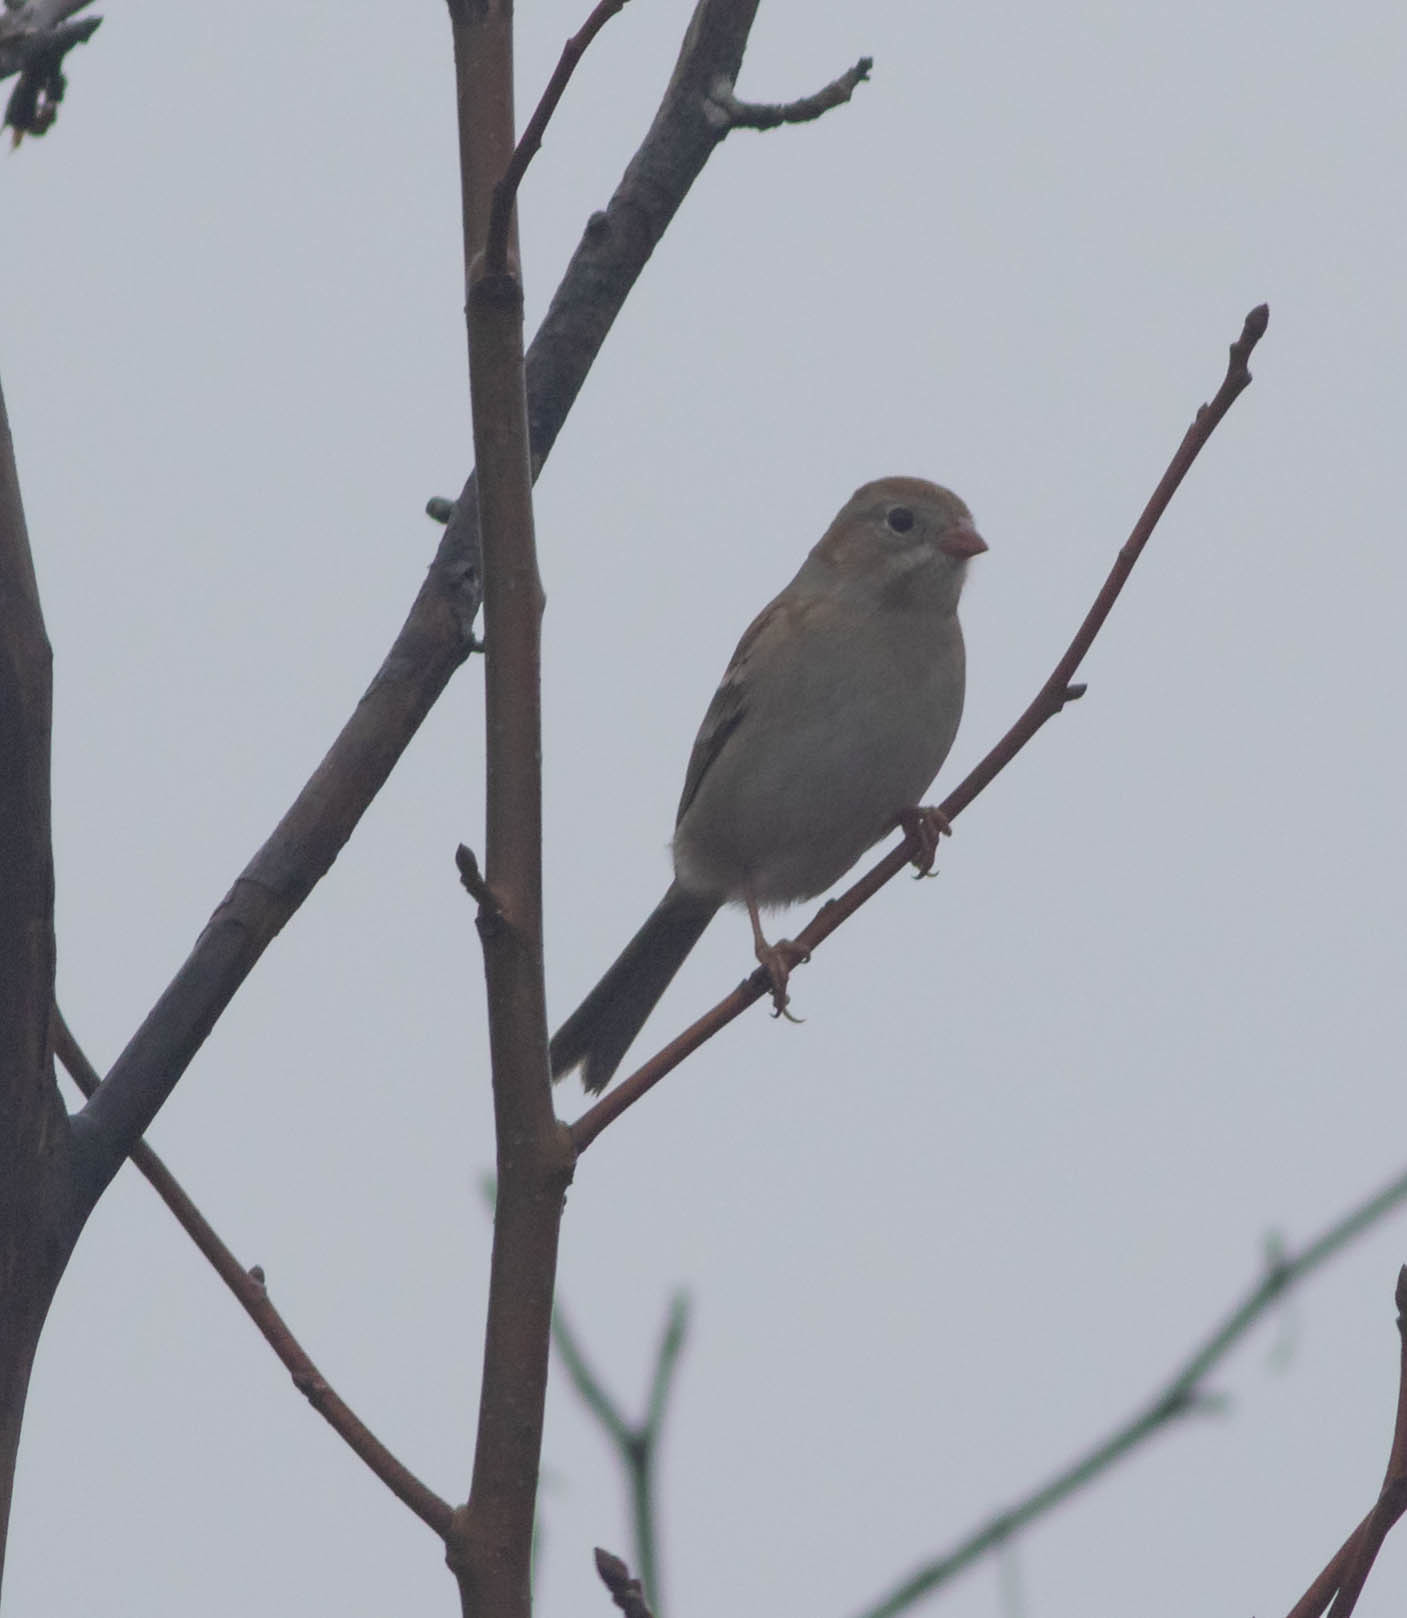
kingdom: Animalia
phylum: Chordata
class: Aves
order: Passeriformes
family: Passerellidae
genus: Spizella
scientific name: Spizella pusilla
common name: Field sparrow
